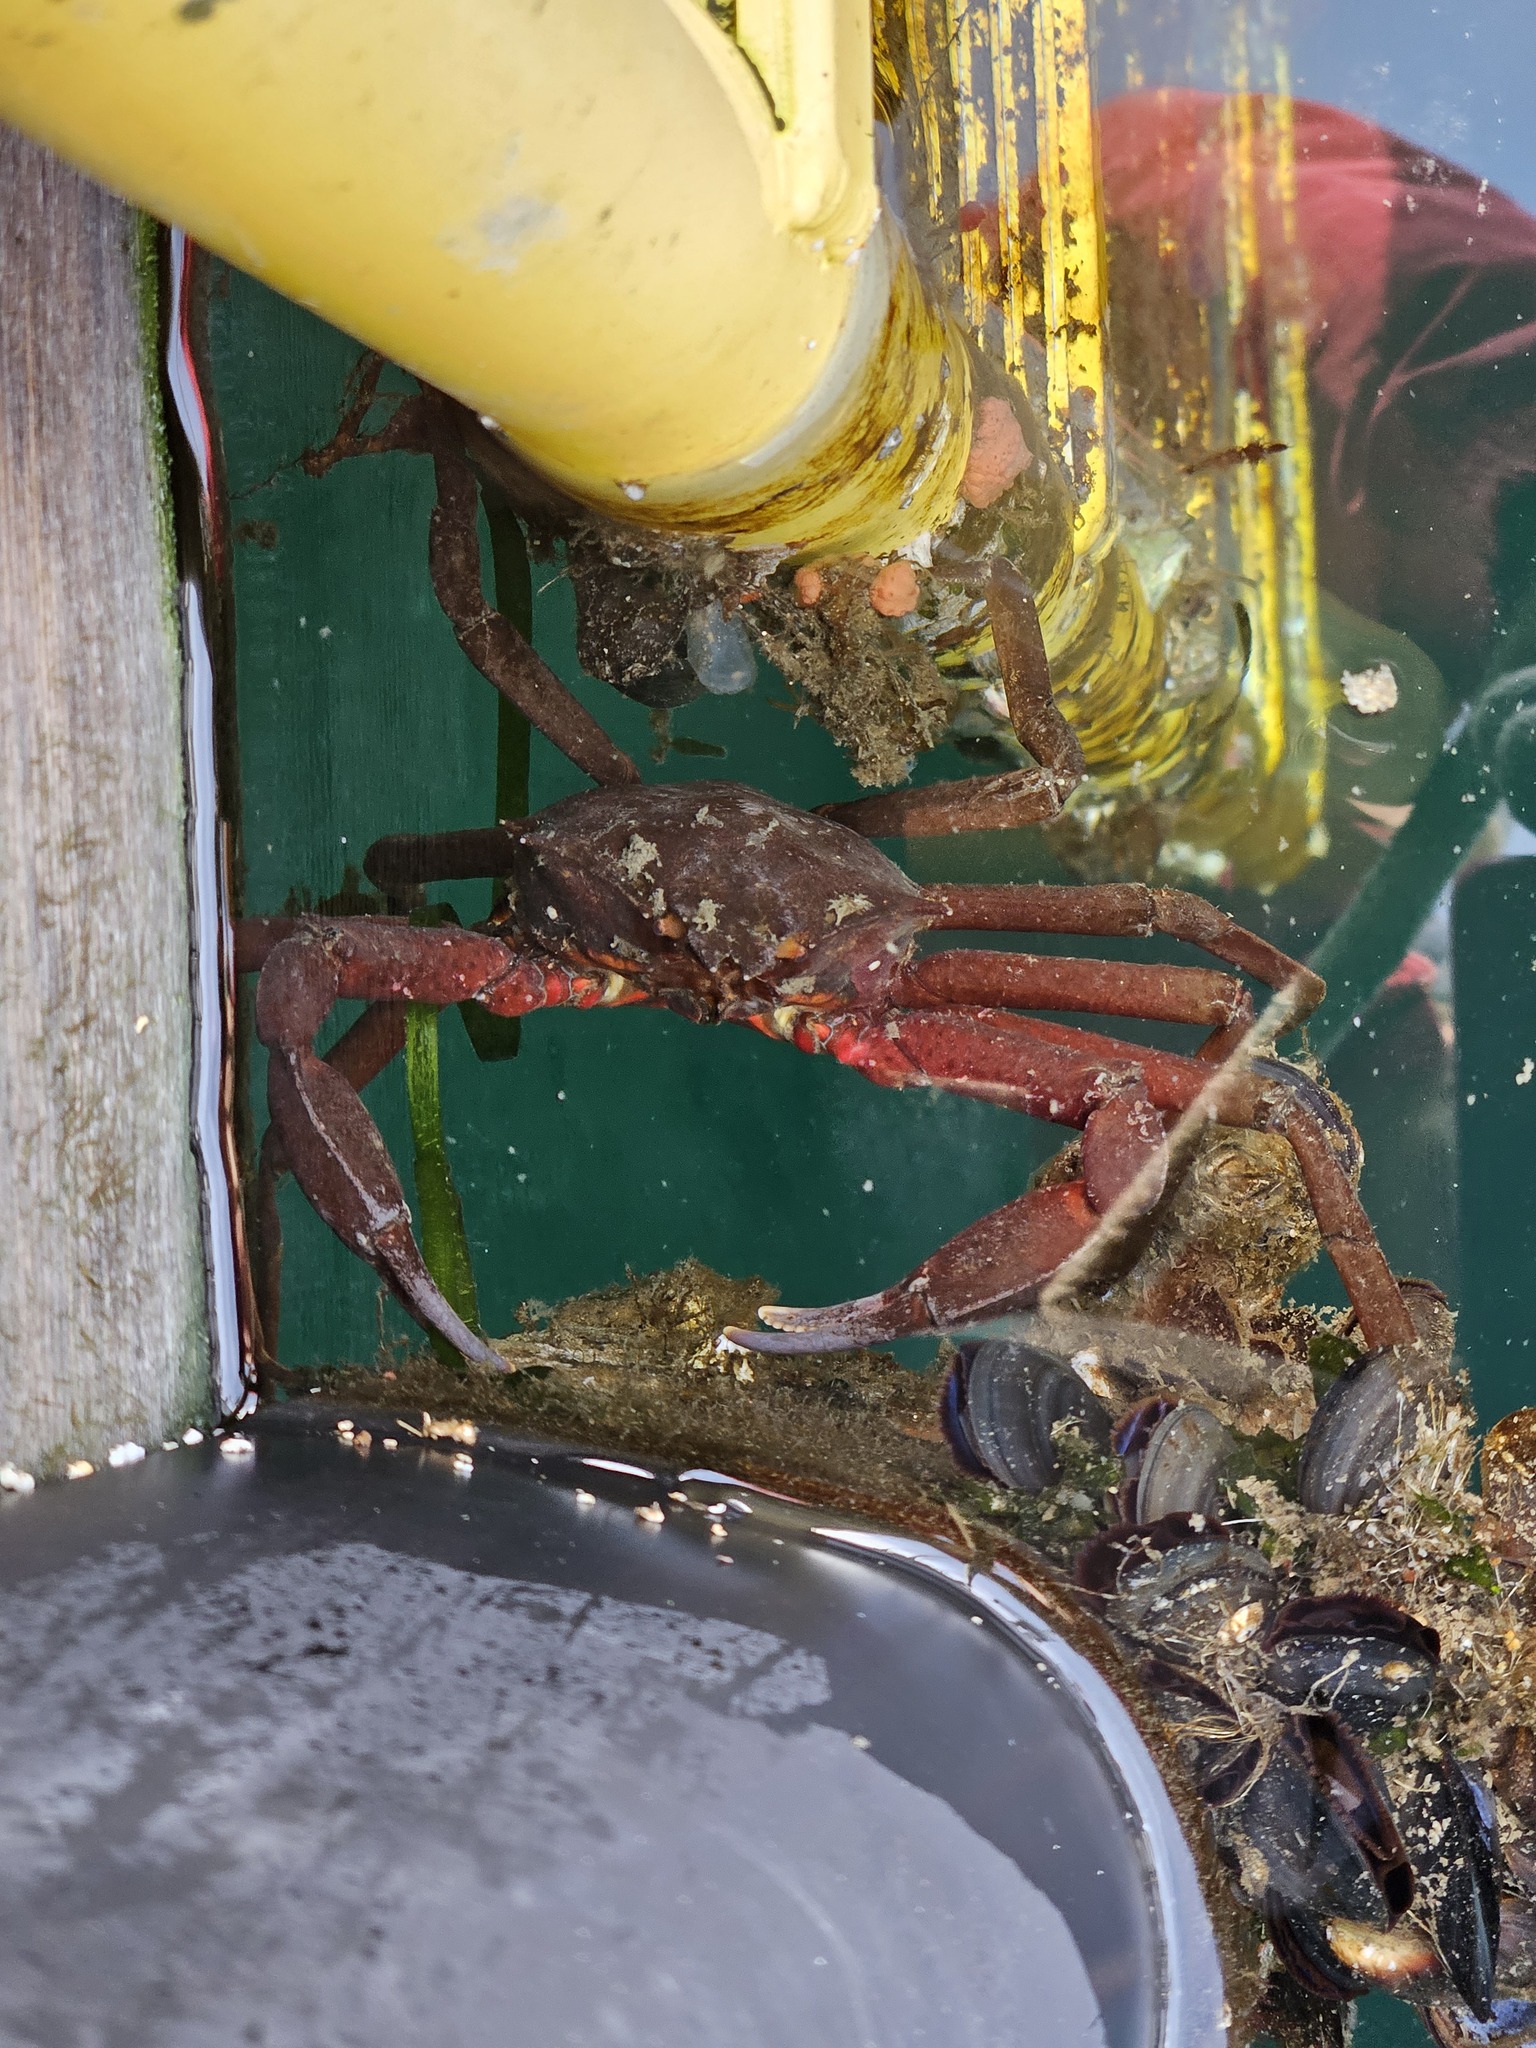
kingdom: Animalia
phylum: Arthropoda
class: Malacostraca
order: Decapoda
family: Epialtidae
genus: Pugettia
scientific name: Pugettia producta
